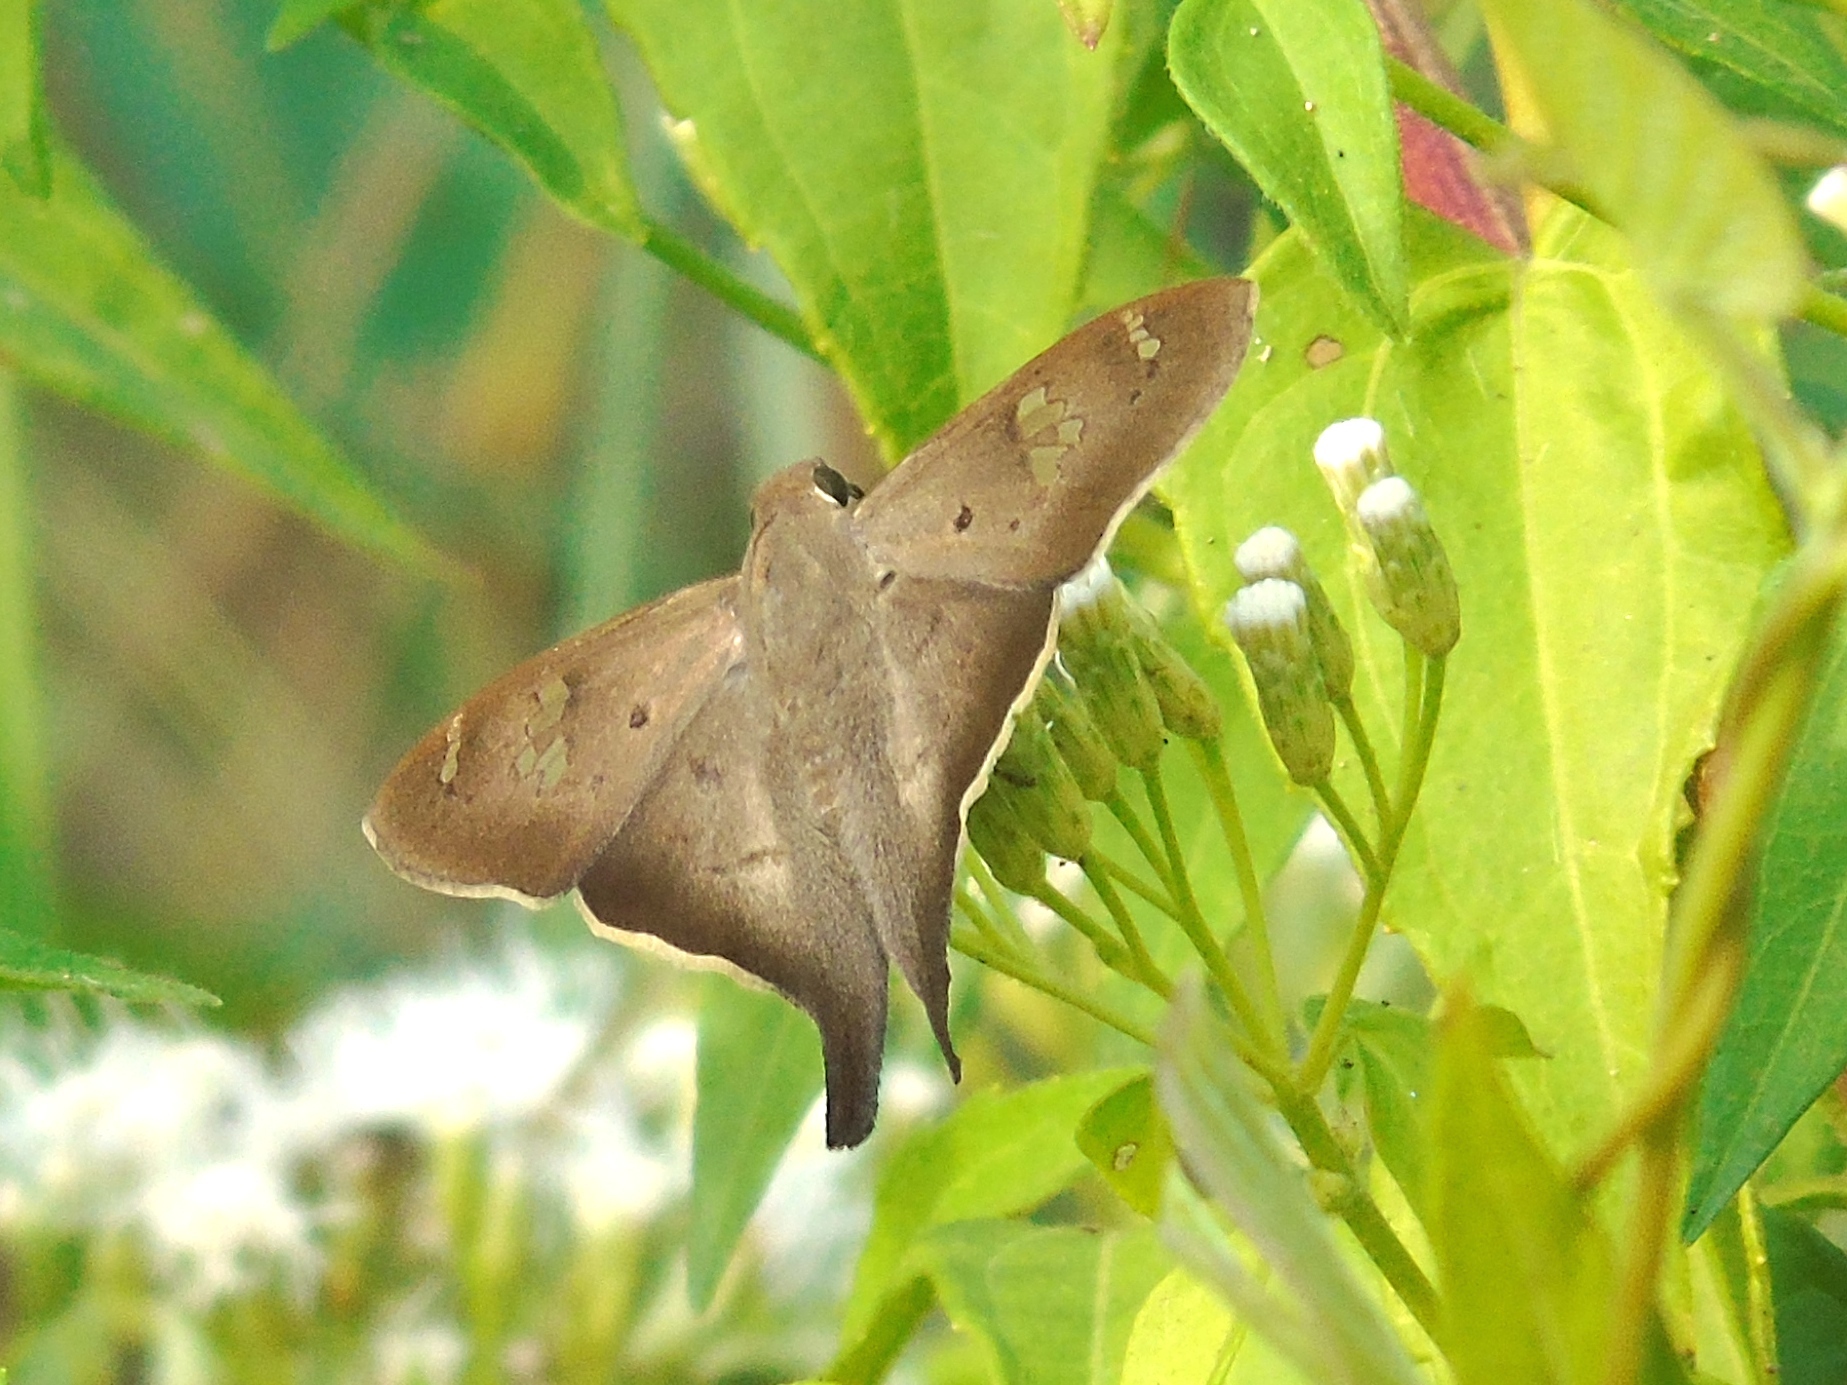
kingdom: Animalia
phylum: Arthropoda
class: Insecta
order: Lepidoptera
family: Hesperiidae
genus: Ectomis
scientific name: Ectomis
